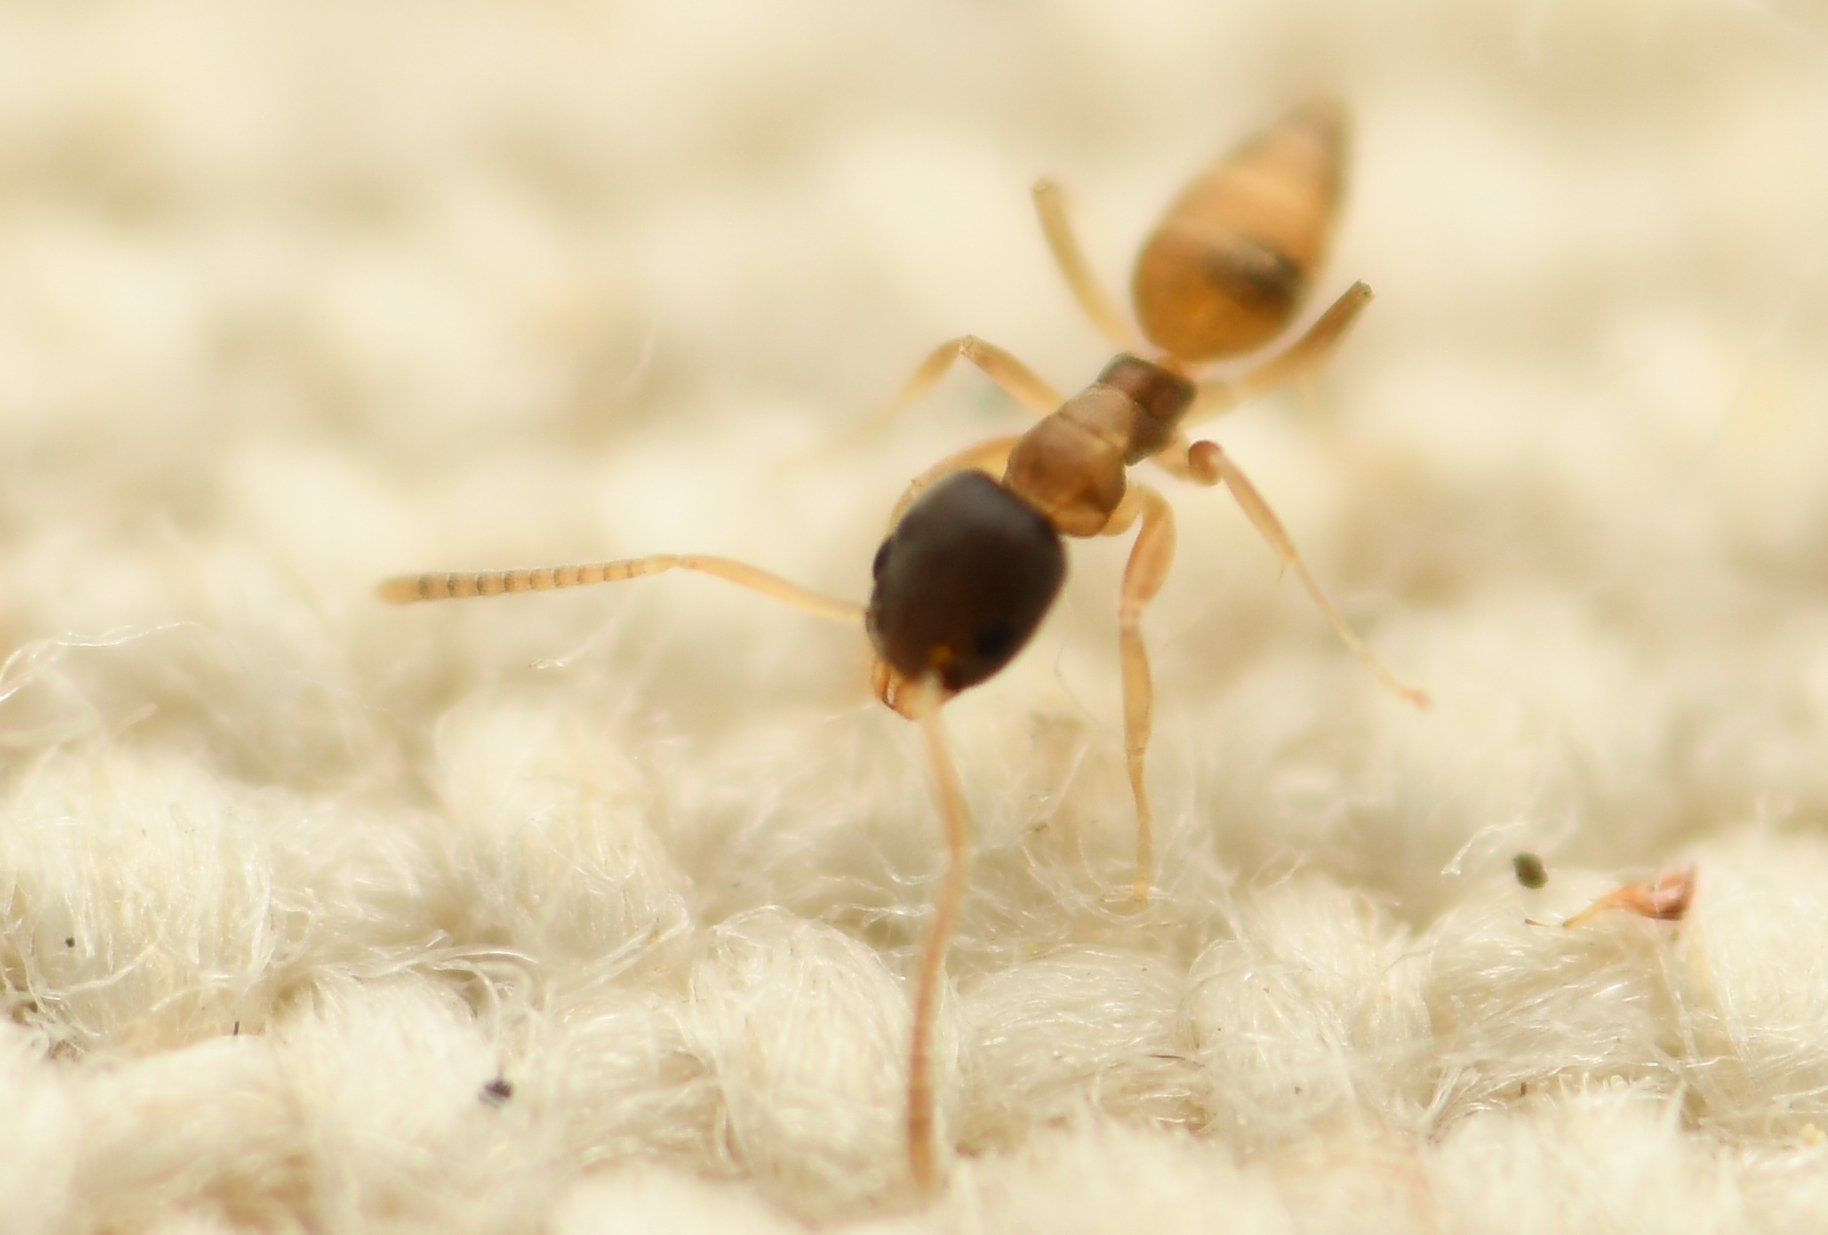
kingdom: Animalia
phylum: Arthropoda
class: Insecta
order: Hymenoptera
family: Formicidae
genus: Tapinoma
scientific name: Tapinoma melanocephalum
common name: Ghost ant
